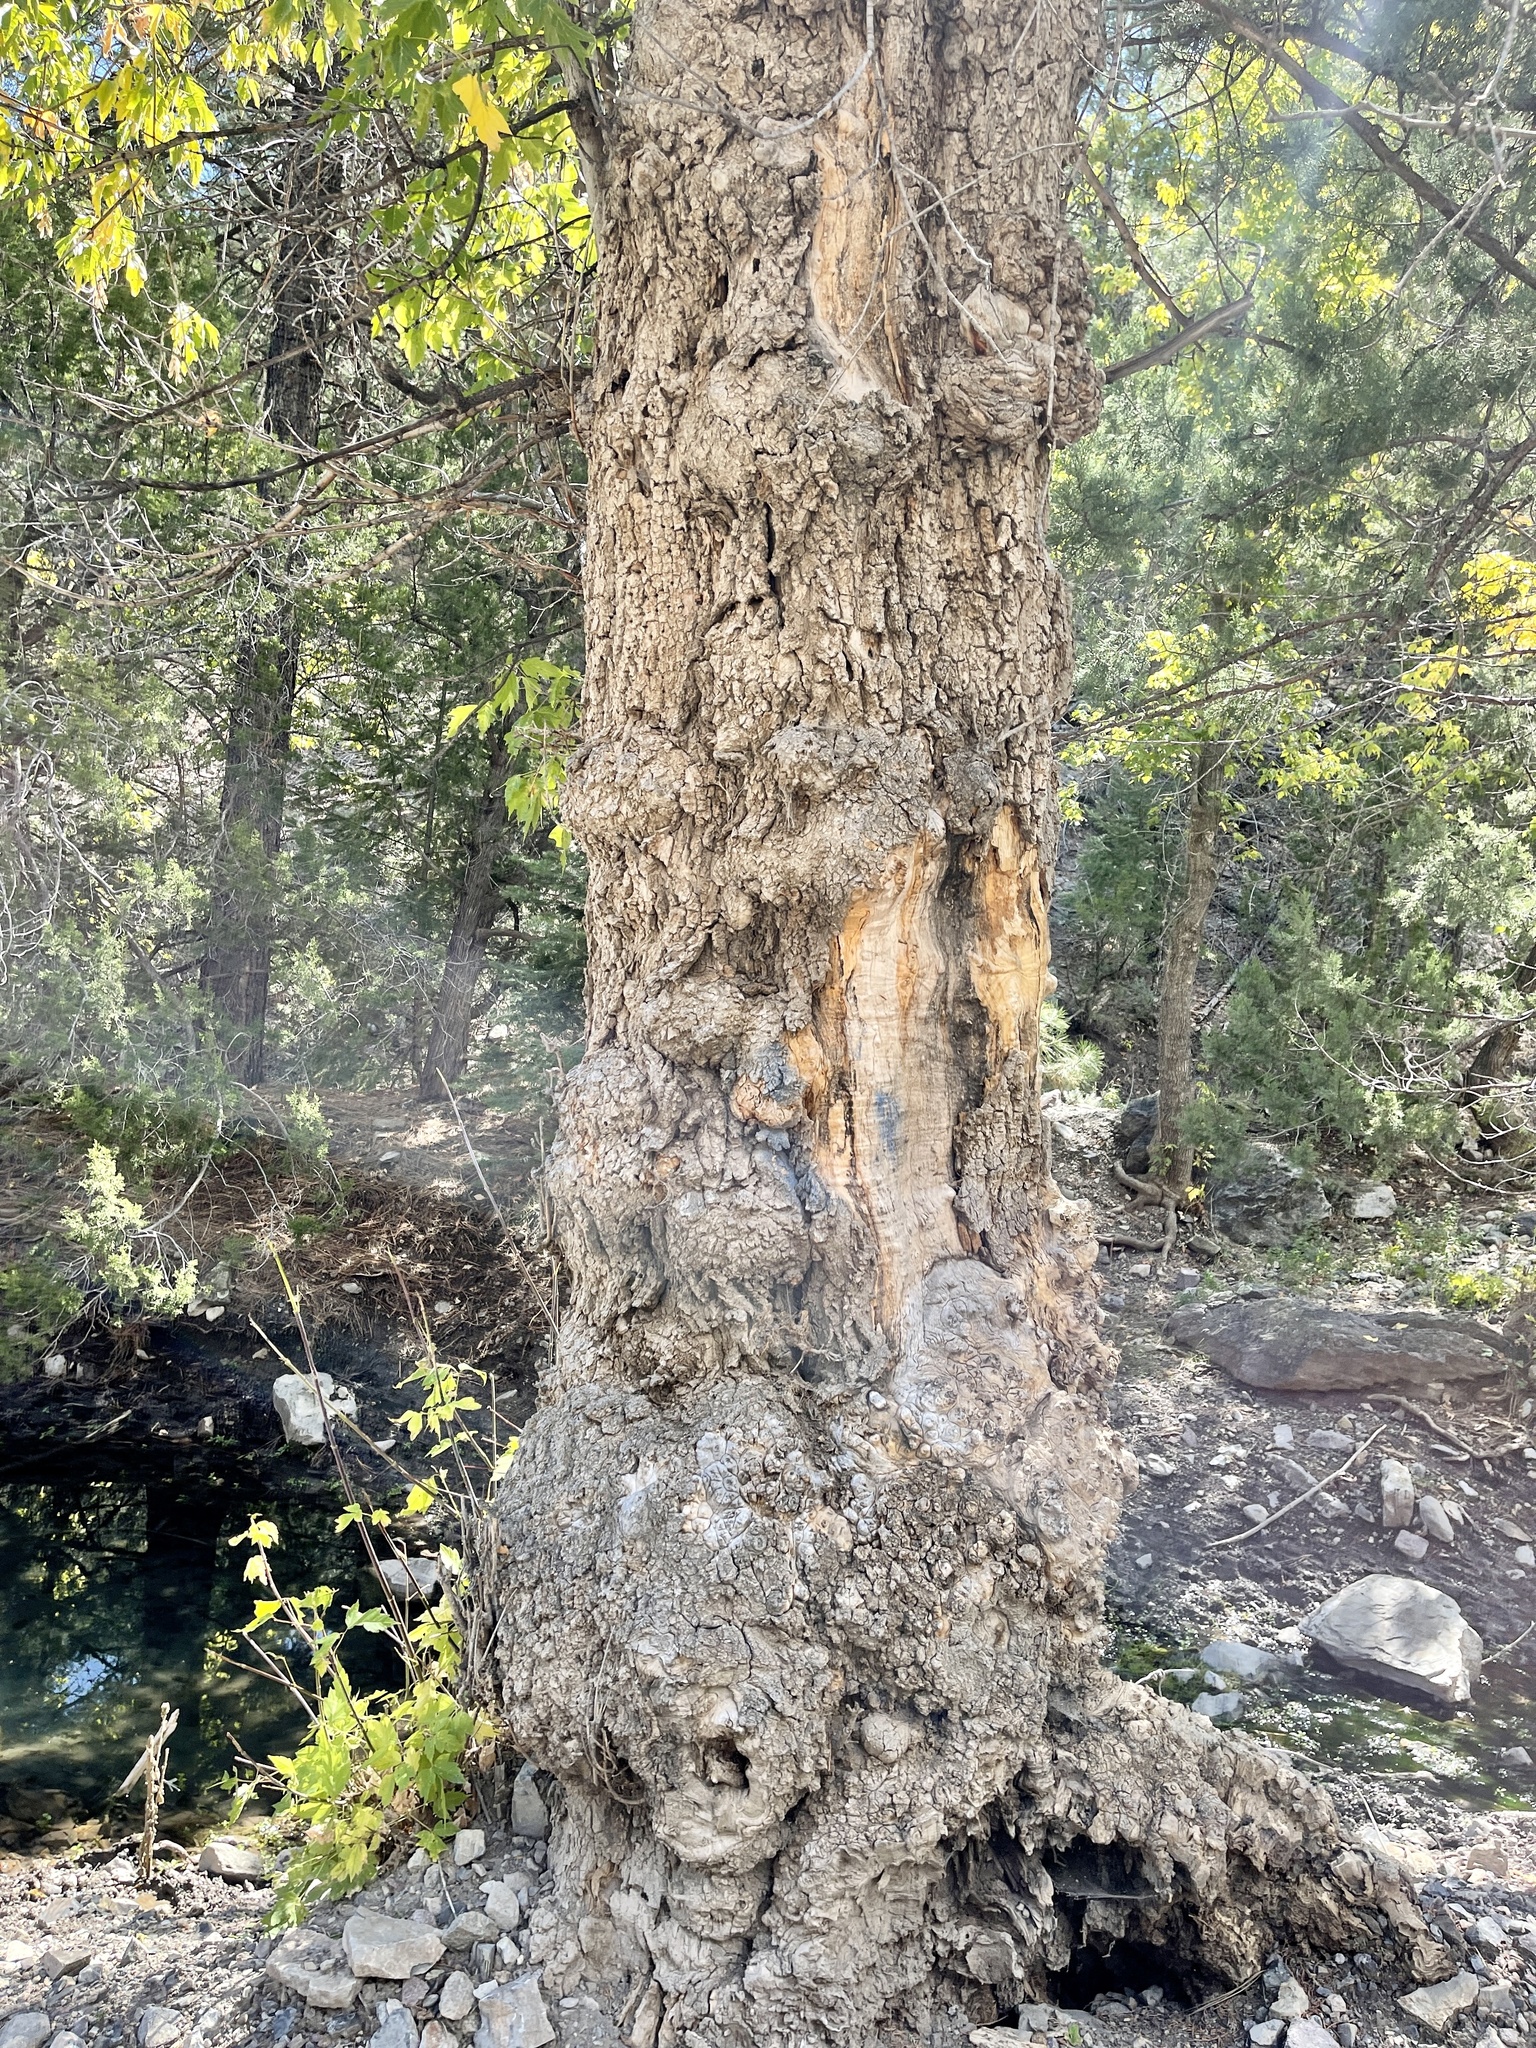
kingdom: Plantae
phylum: Tracheophyta
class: Magnoliopsida
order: Sapindales
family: Sapindaceae
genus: Acer
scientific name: Acer negundo
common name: Ashleaf maple
